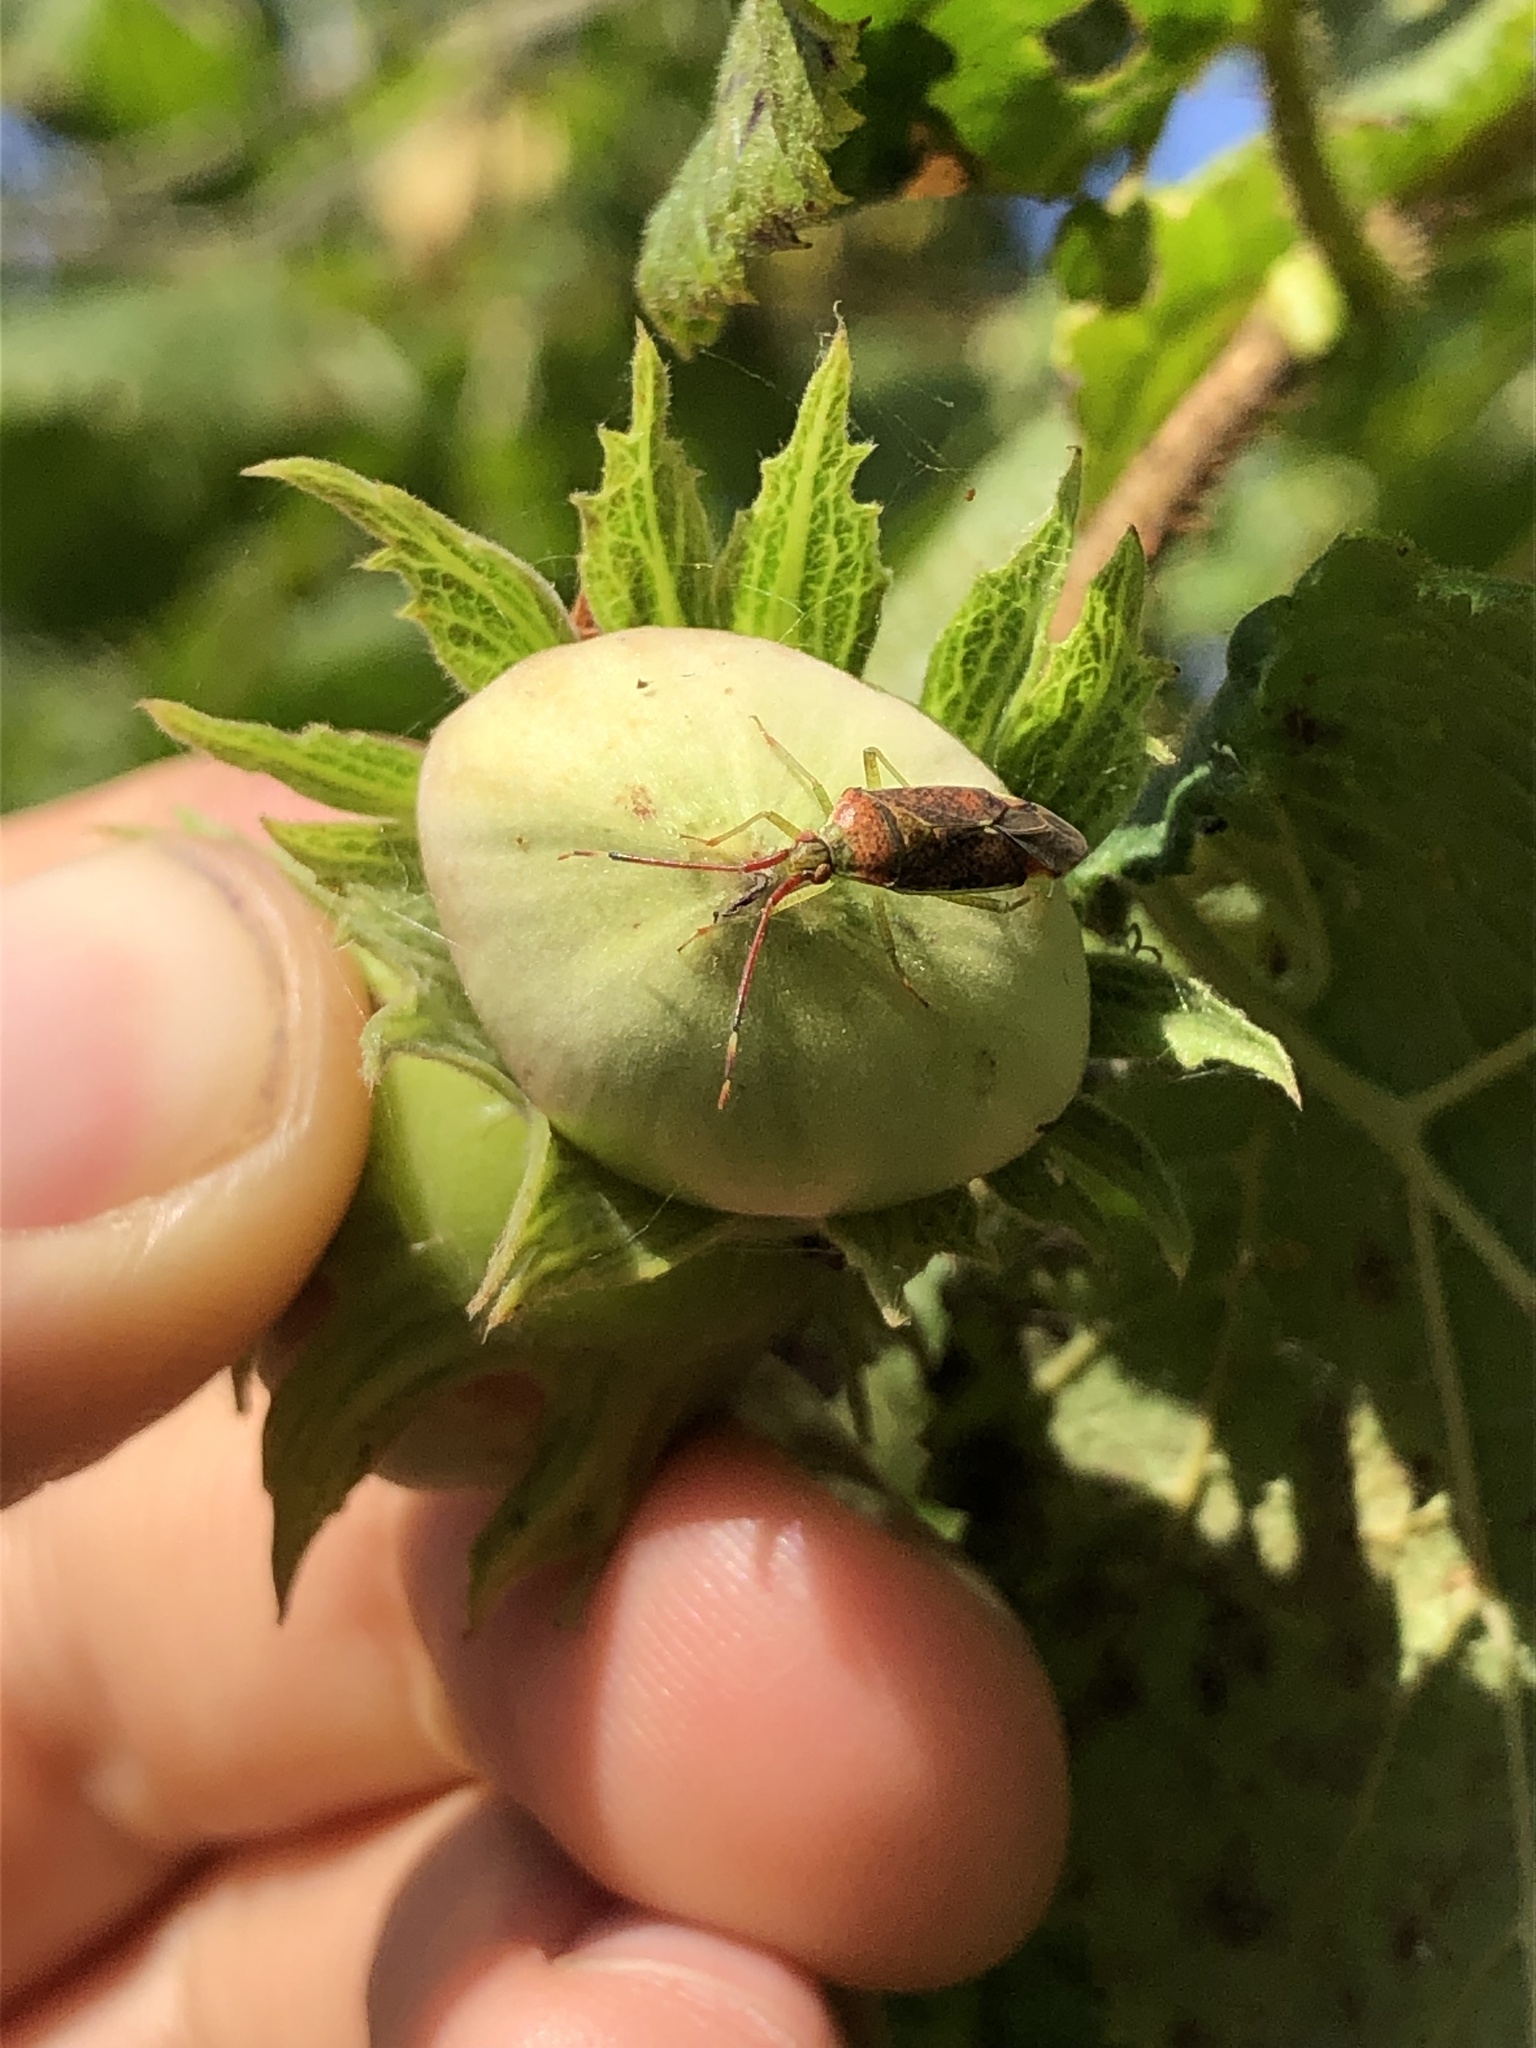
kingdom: Animalia
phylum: Arthropoda
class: Insecta
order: Hemiptera
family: Miridae
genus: Pantilius
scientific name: Pantilius tunicatus
